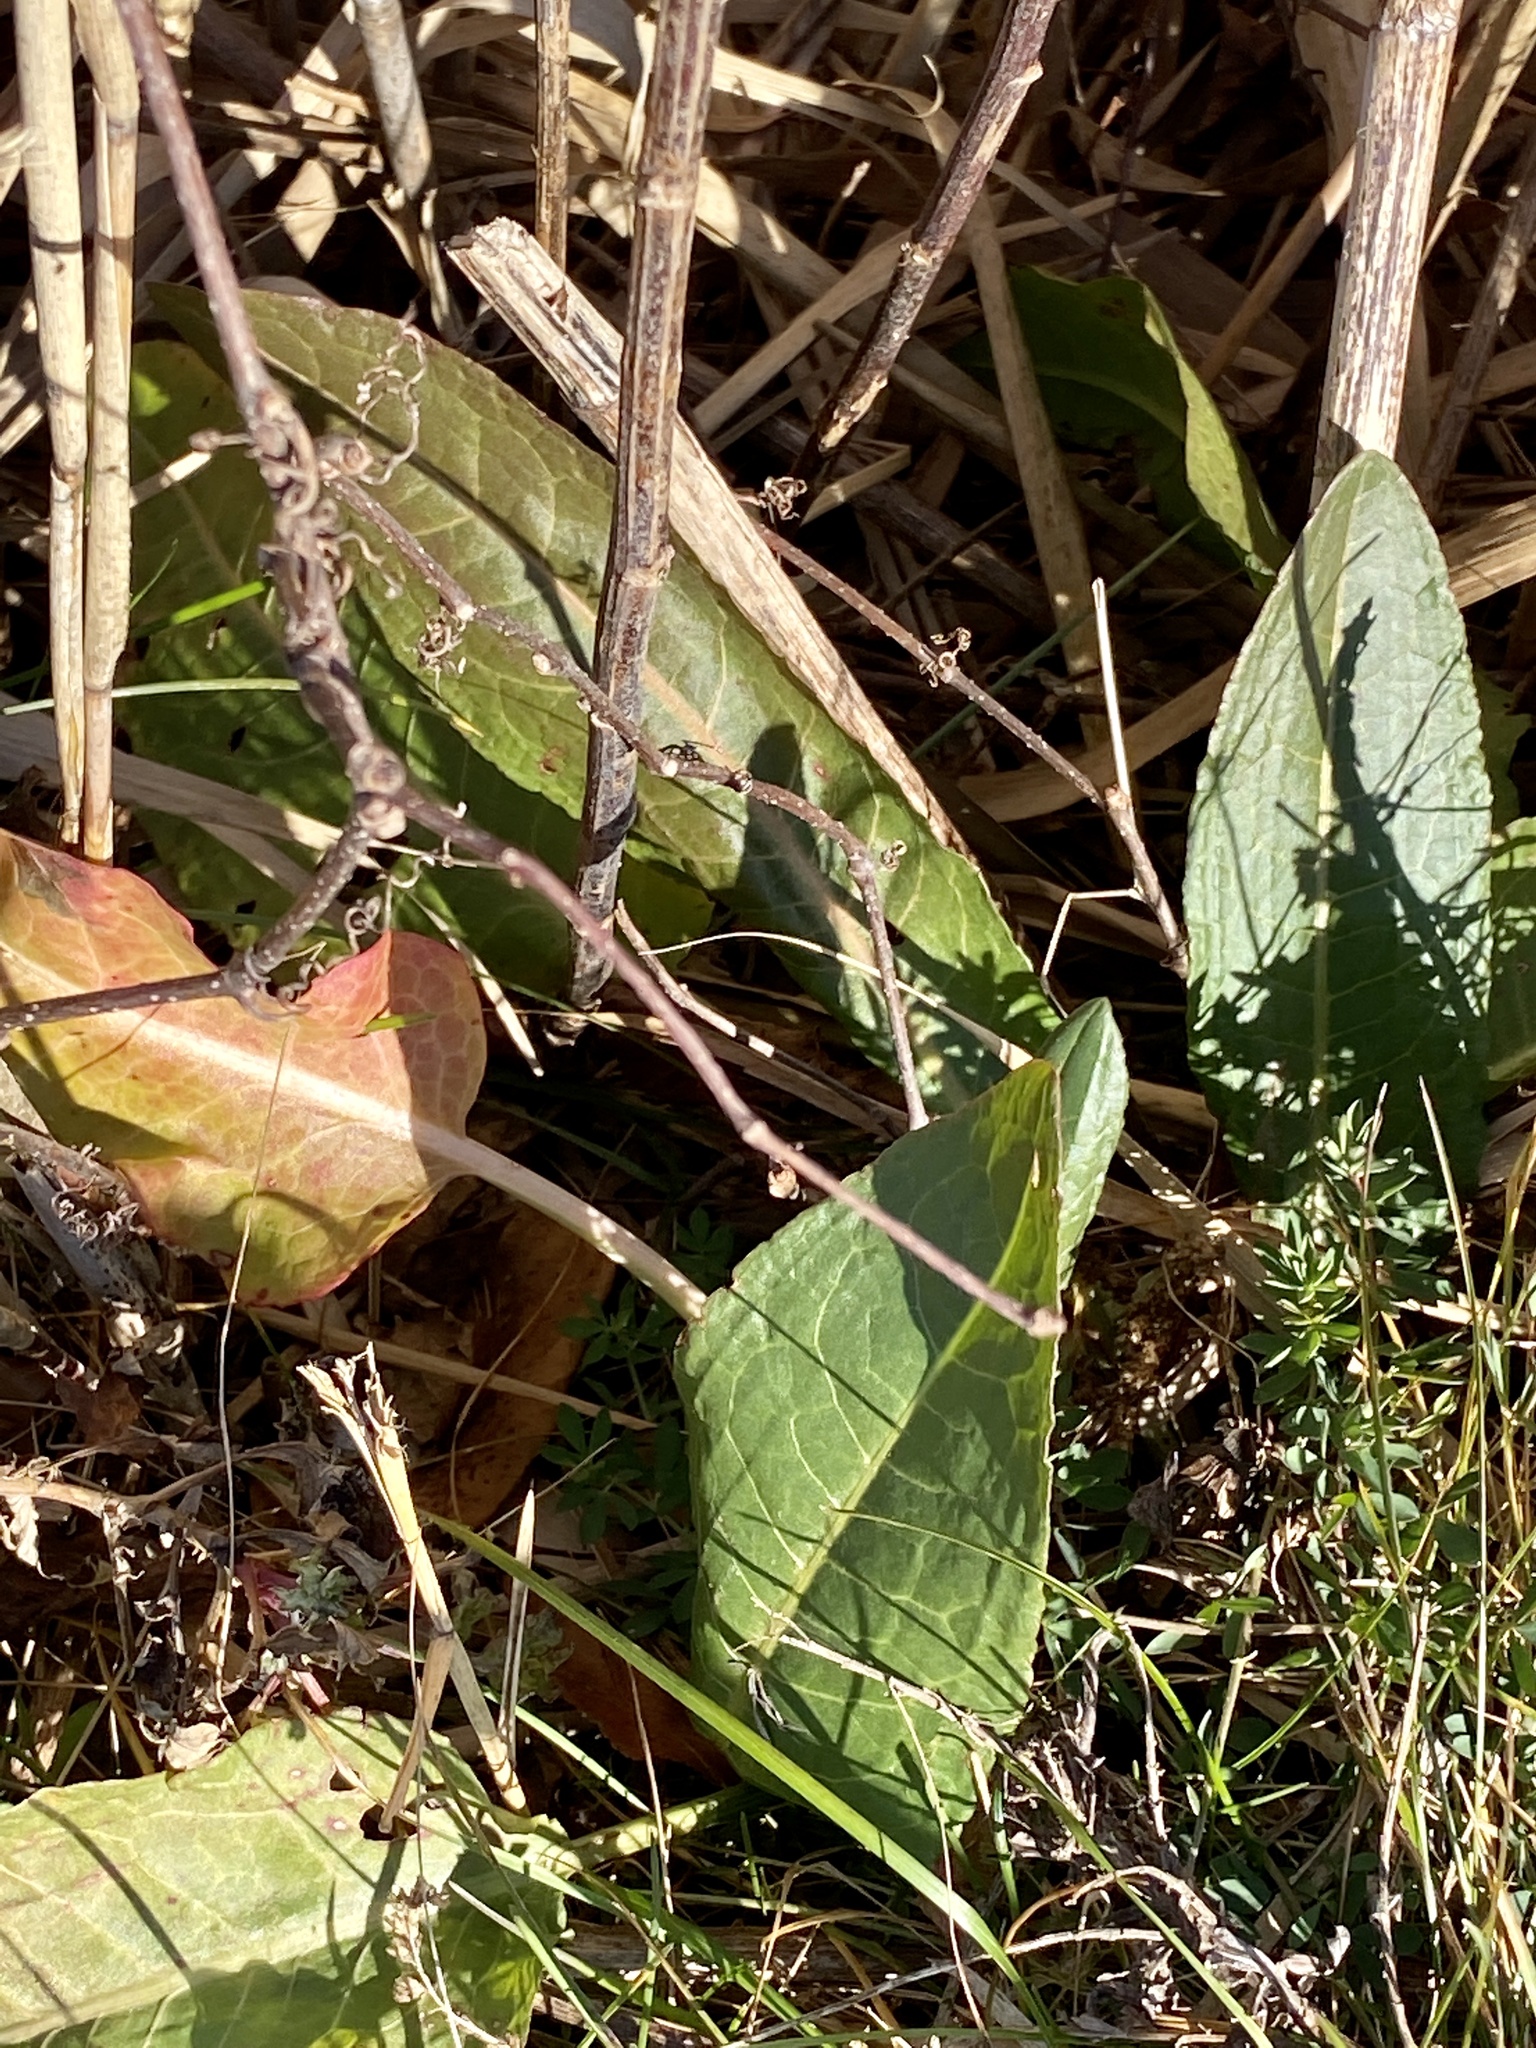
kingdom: Plantae
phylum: Tracheophyta
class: Magnoliopsida
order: Caryophyllales
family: Polygonaceae
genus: Rumex
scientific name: Rumex crispus
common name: Curled dock
